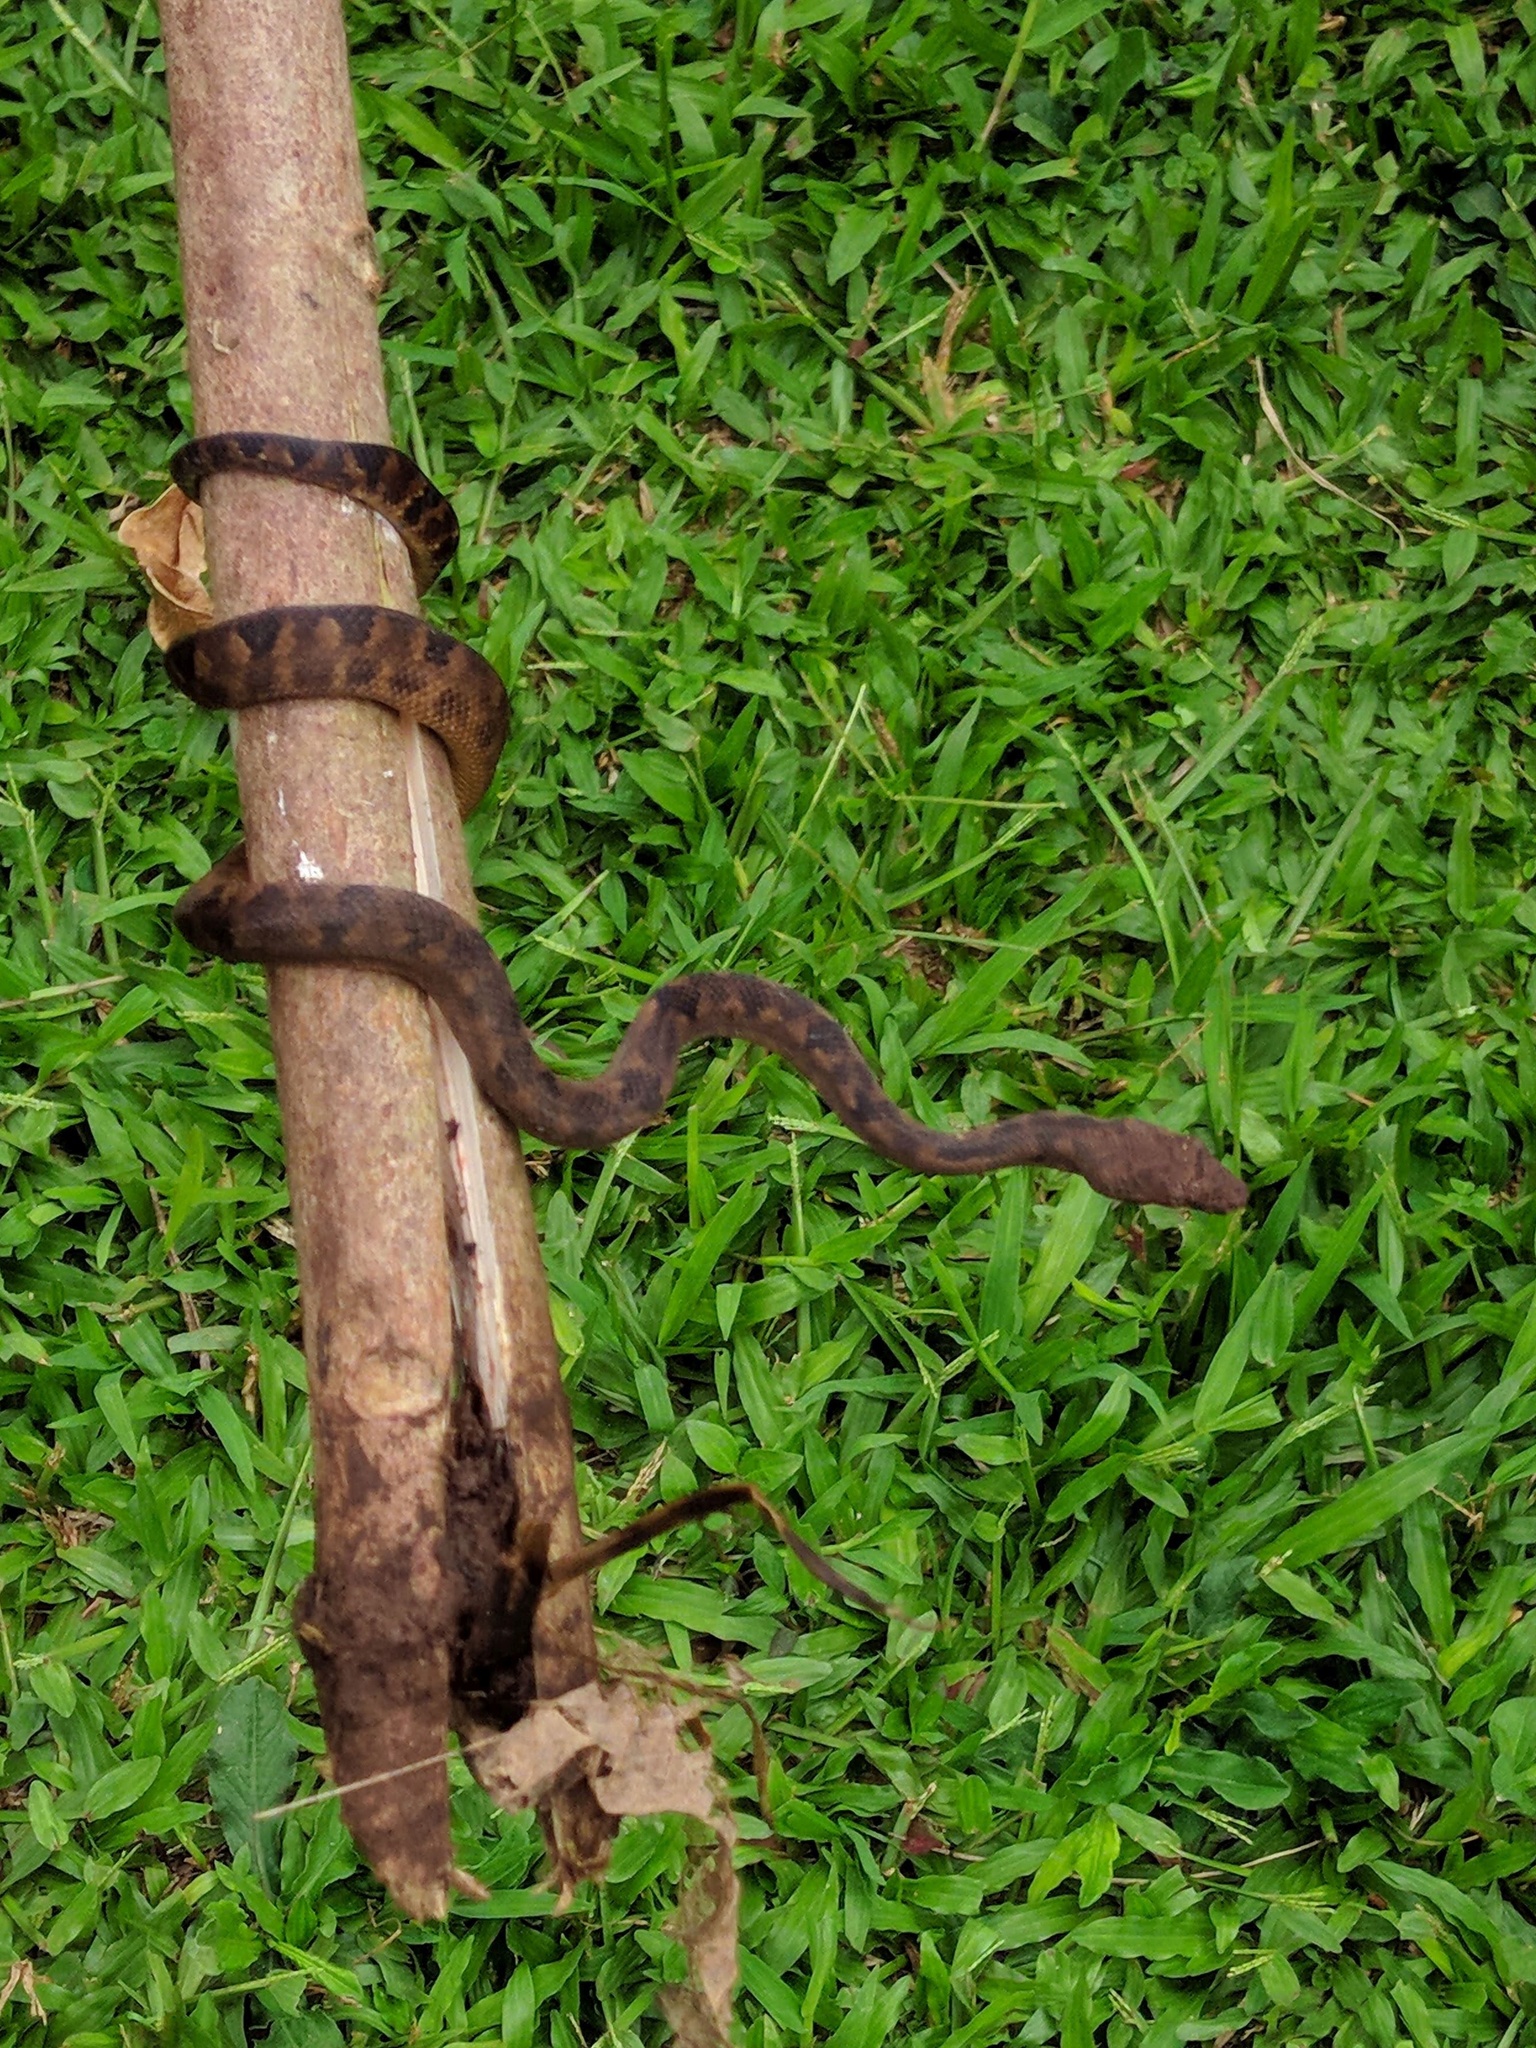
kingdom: Animalia
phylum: Chordata
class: Squamata
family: Boidae
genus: Candoia
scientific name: Candoia bibroni
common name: Fiji island boa
